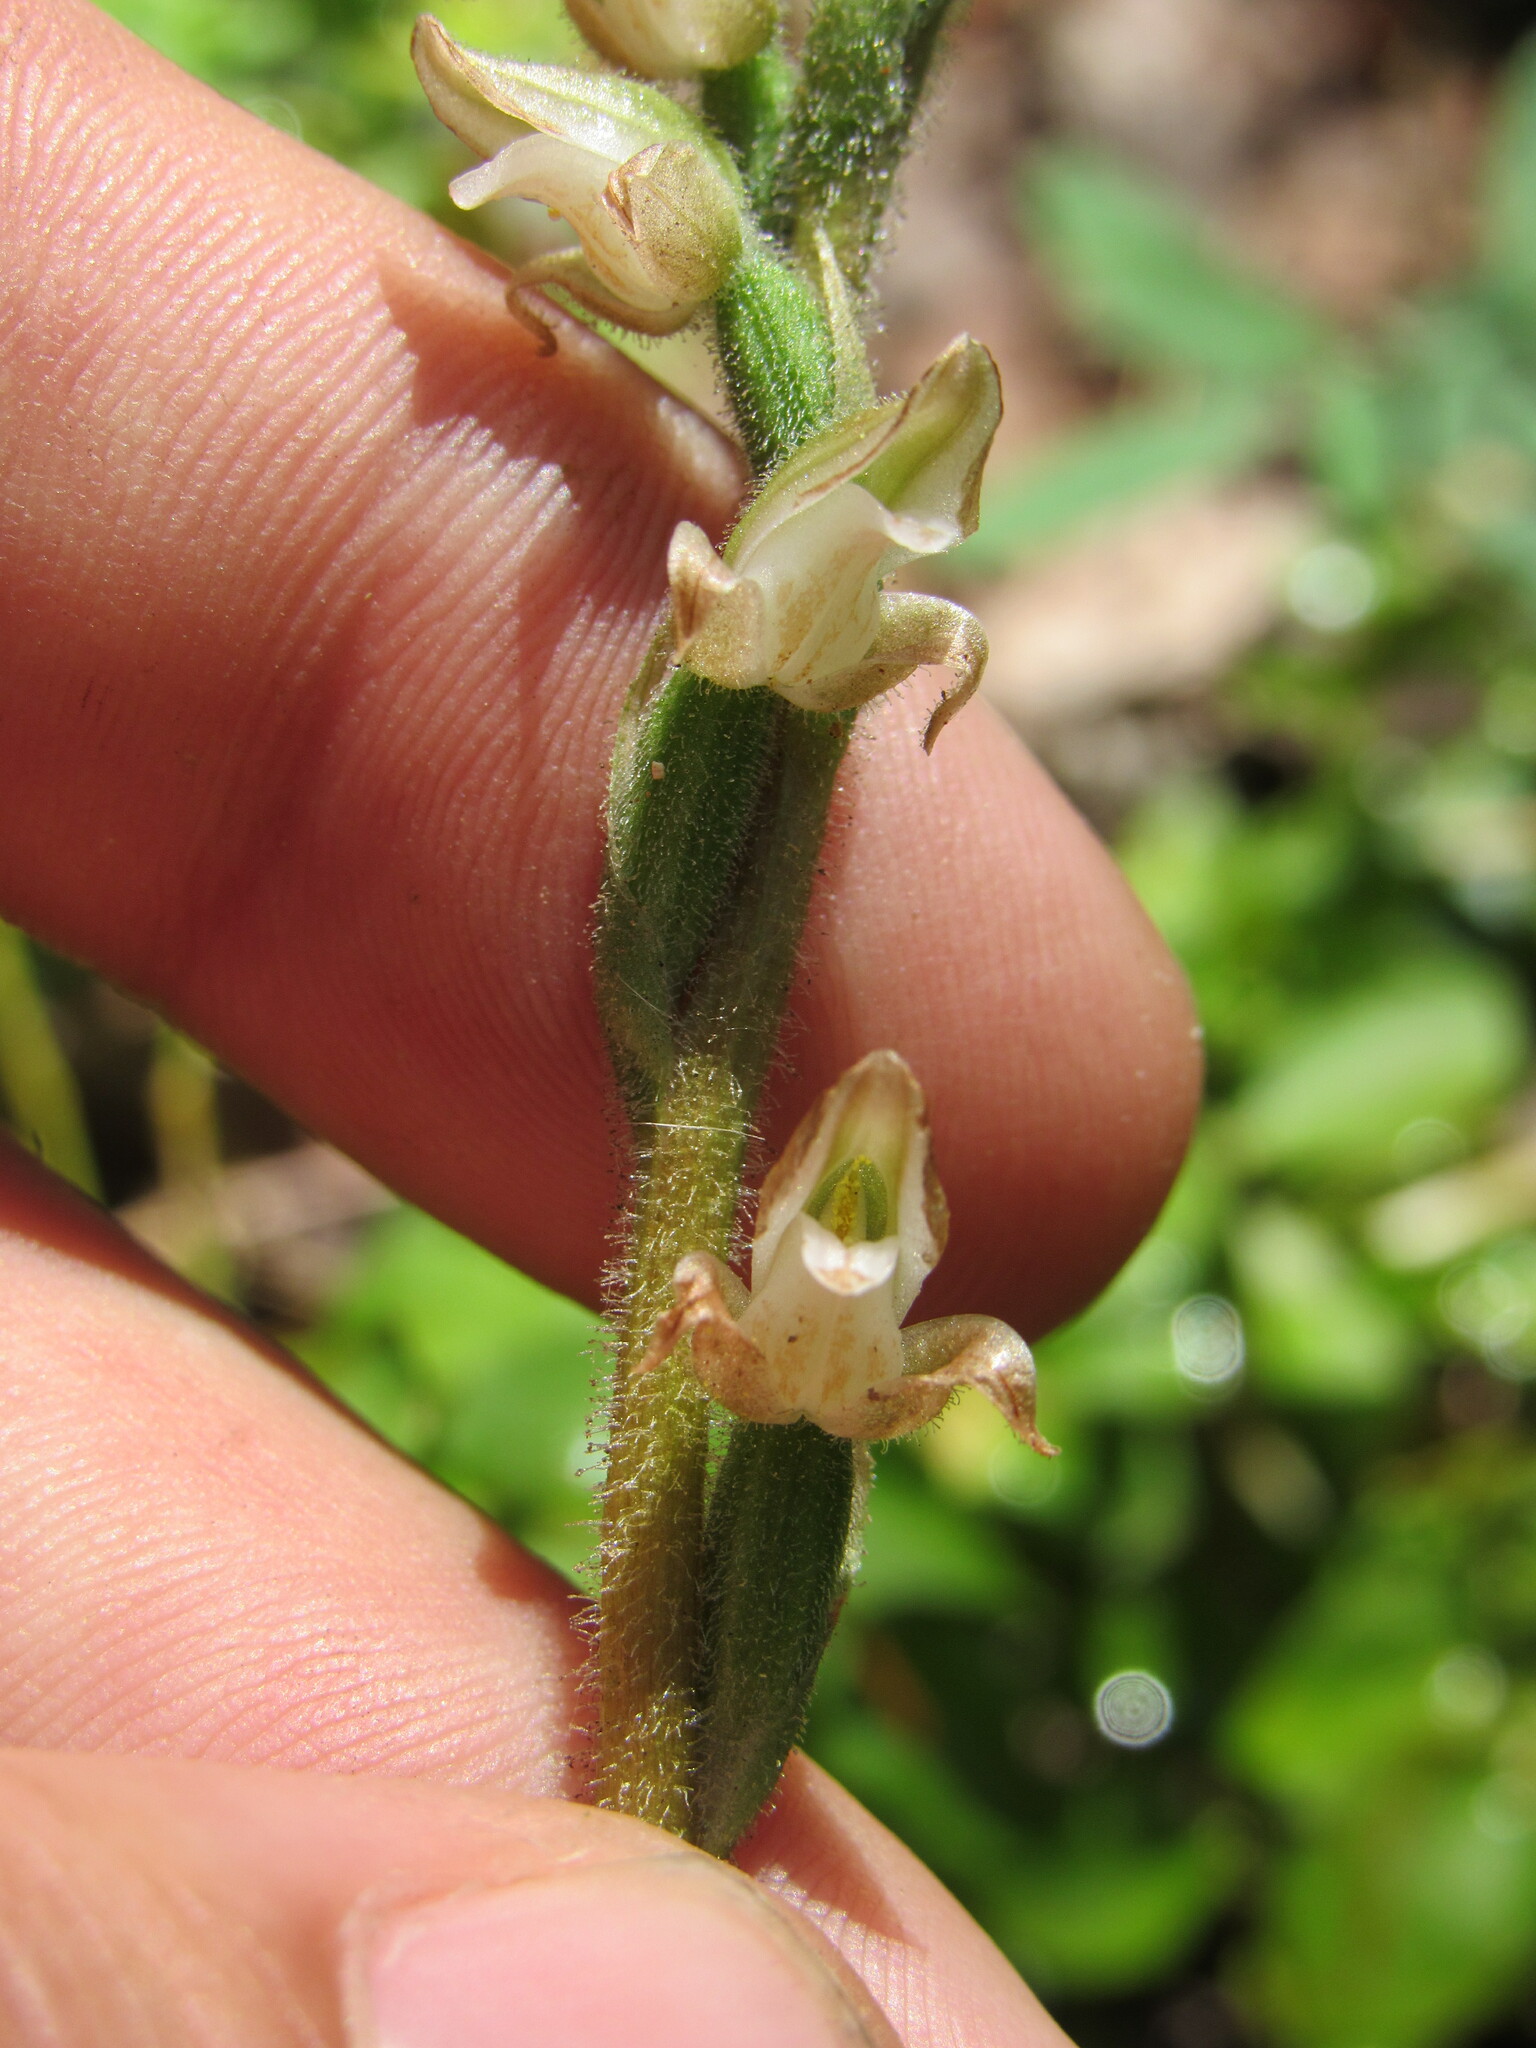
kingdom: Plantae
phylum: Tracheophyta
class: Liliopsida
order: Asparagales
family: Orchidaceae
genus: Goodyera
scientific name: Goodyera oblongifolia
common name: Giant rattlesnake-plantain
